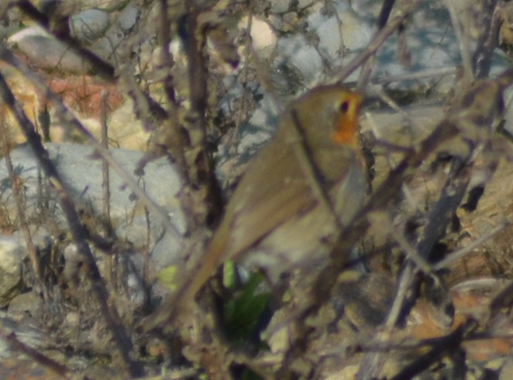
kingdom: Animalia
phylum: Chordata
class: Aves
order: Passeriformes
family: Muscicapidae
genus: Erithacus
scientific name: Erithacus rubecula
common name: European robin
